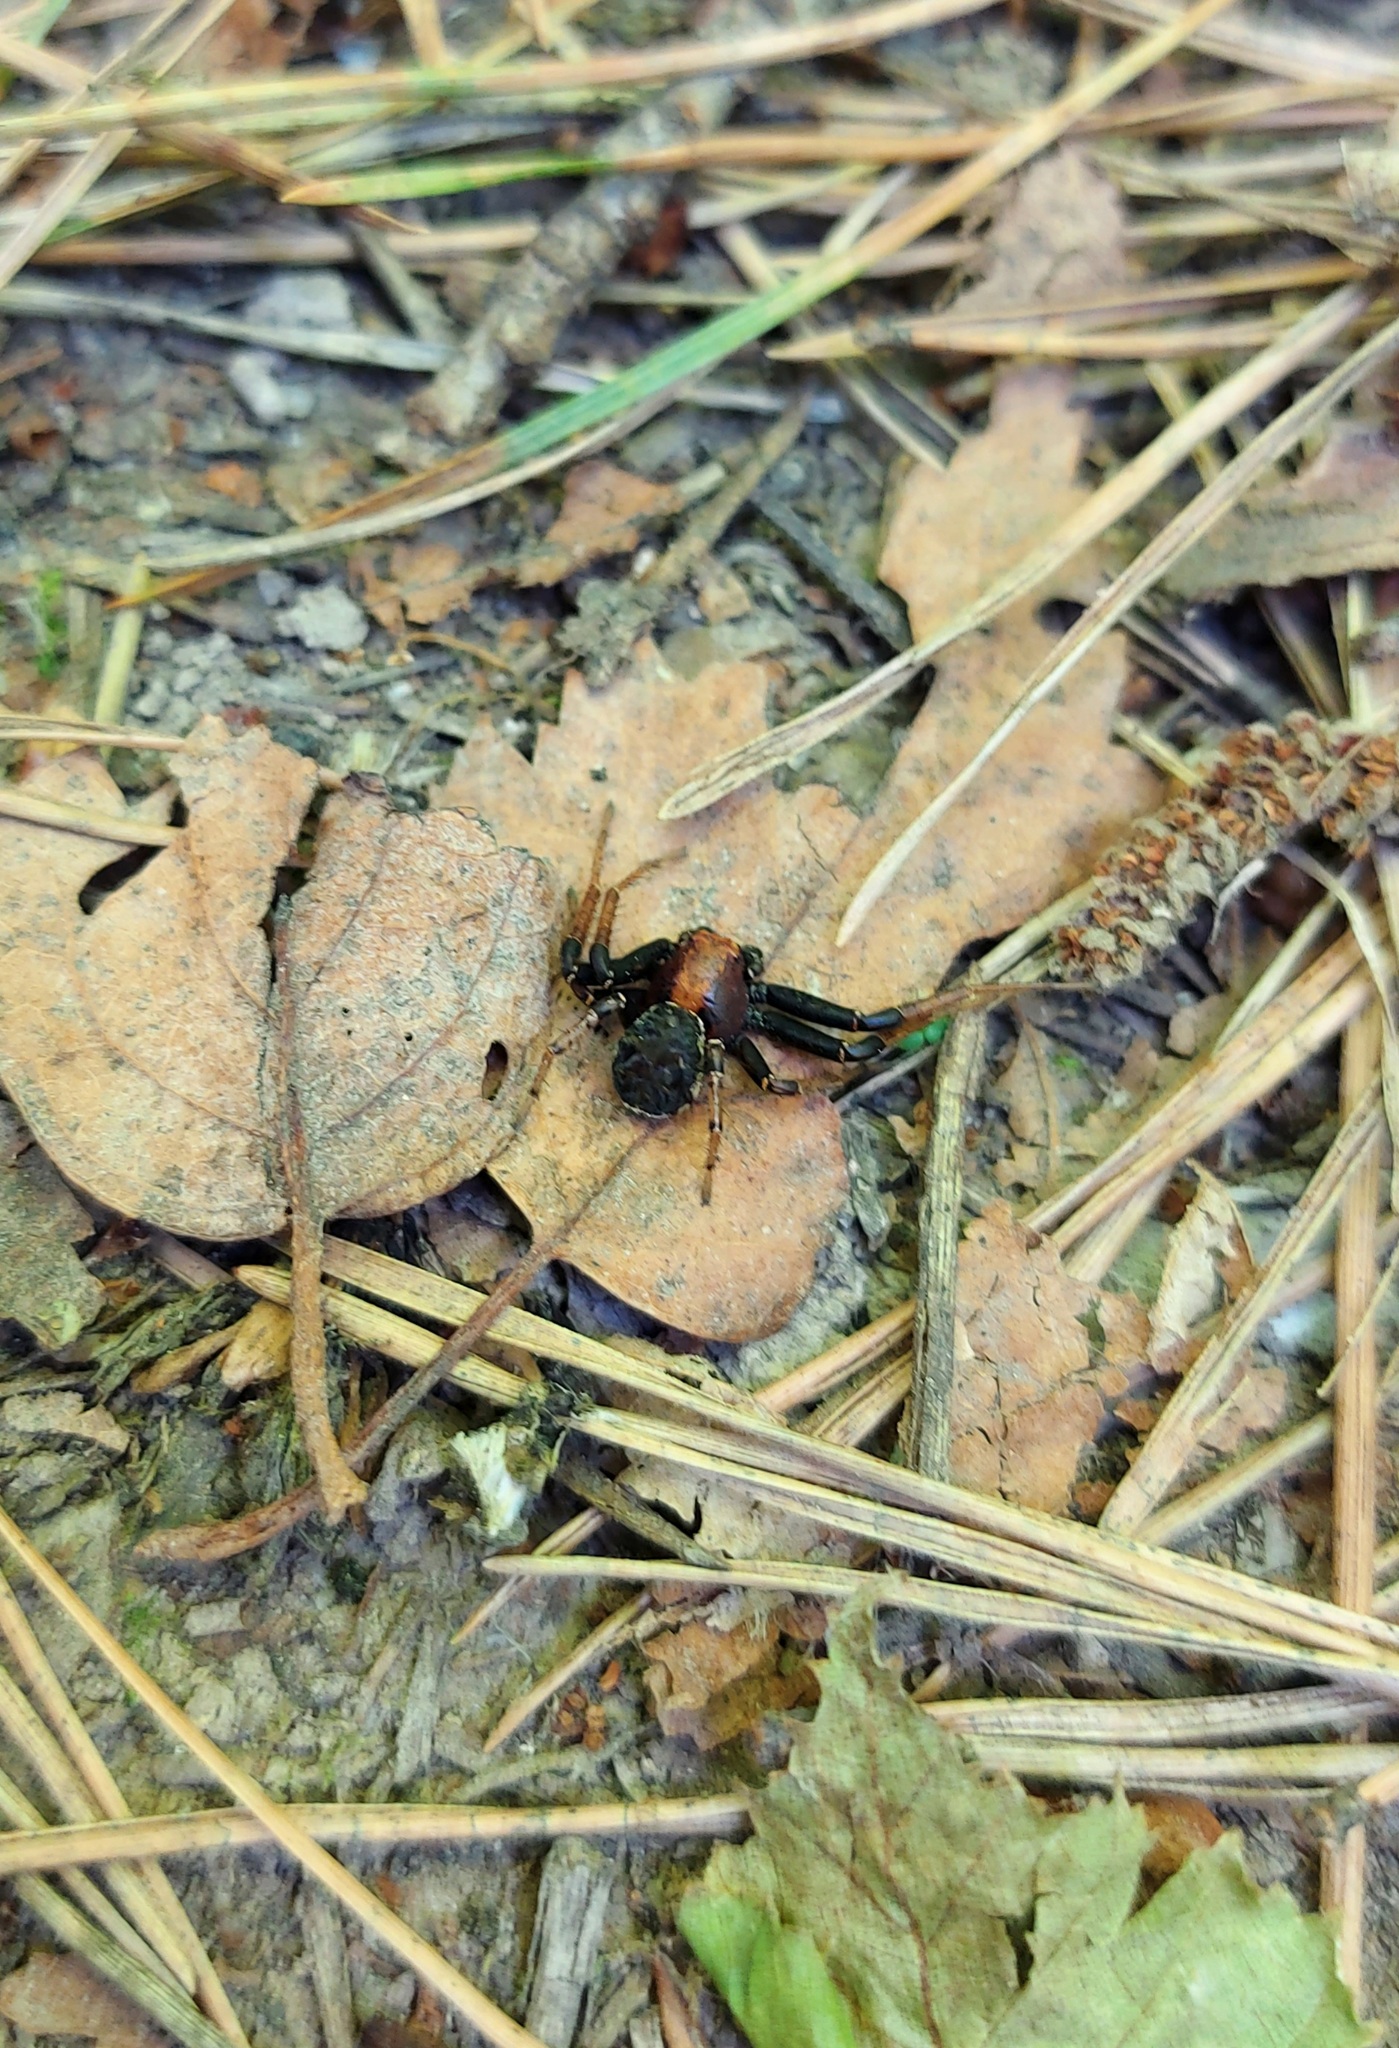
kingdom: Animalia
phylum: Arthropoda
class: Arachnida
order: Araneae
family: Thomisidae
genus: Xysticus
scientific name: Xysticus luctator
